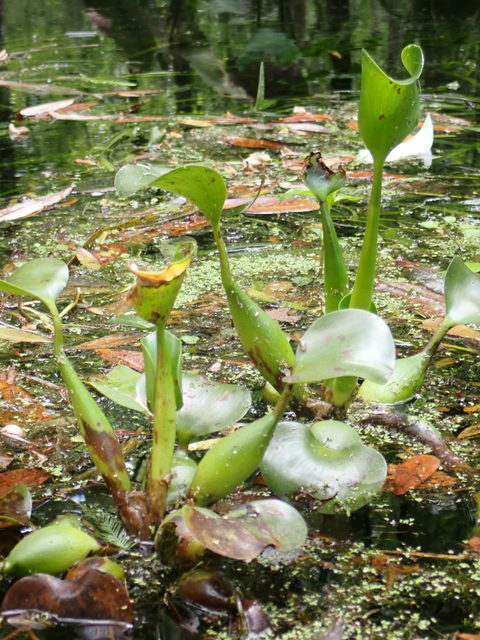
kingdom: Plantae
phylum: Tracheophyta
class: Liliopsida
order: Commelinales
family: Pontederiaceae
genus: Pontederia
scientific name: Pontederia crassipes
